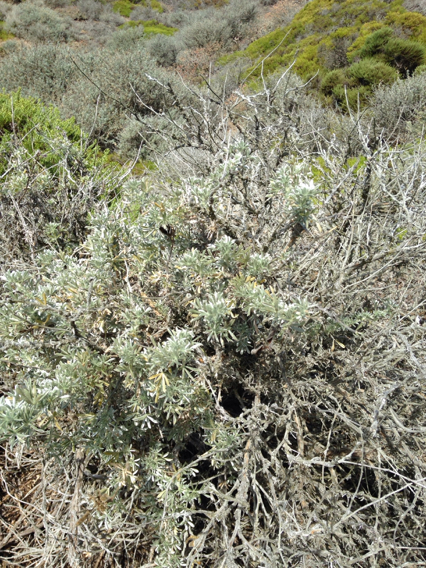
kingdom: Plantae
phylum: Tracheophyta
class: Magnoliopsida
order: Fabales
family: Fabaceae
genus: Lupinus
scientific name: Lupinus chamissonis
